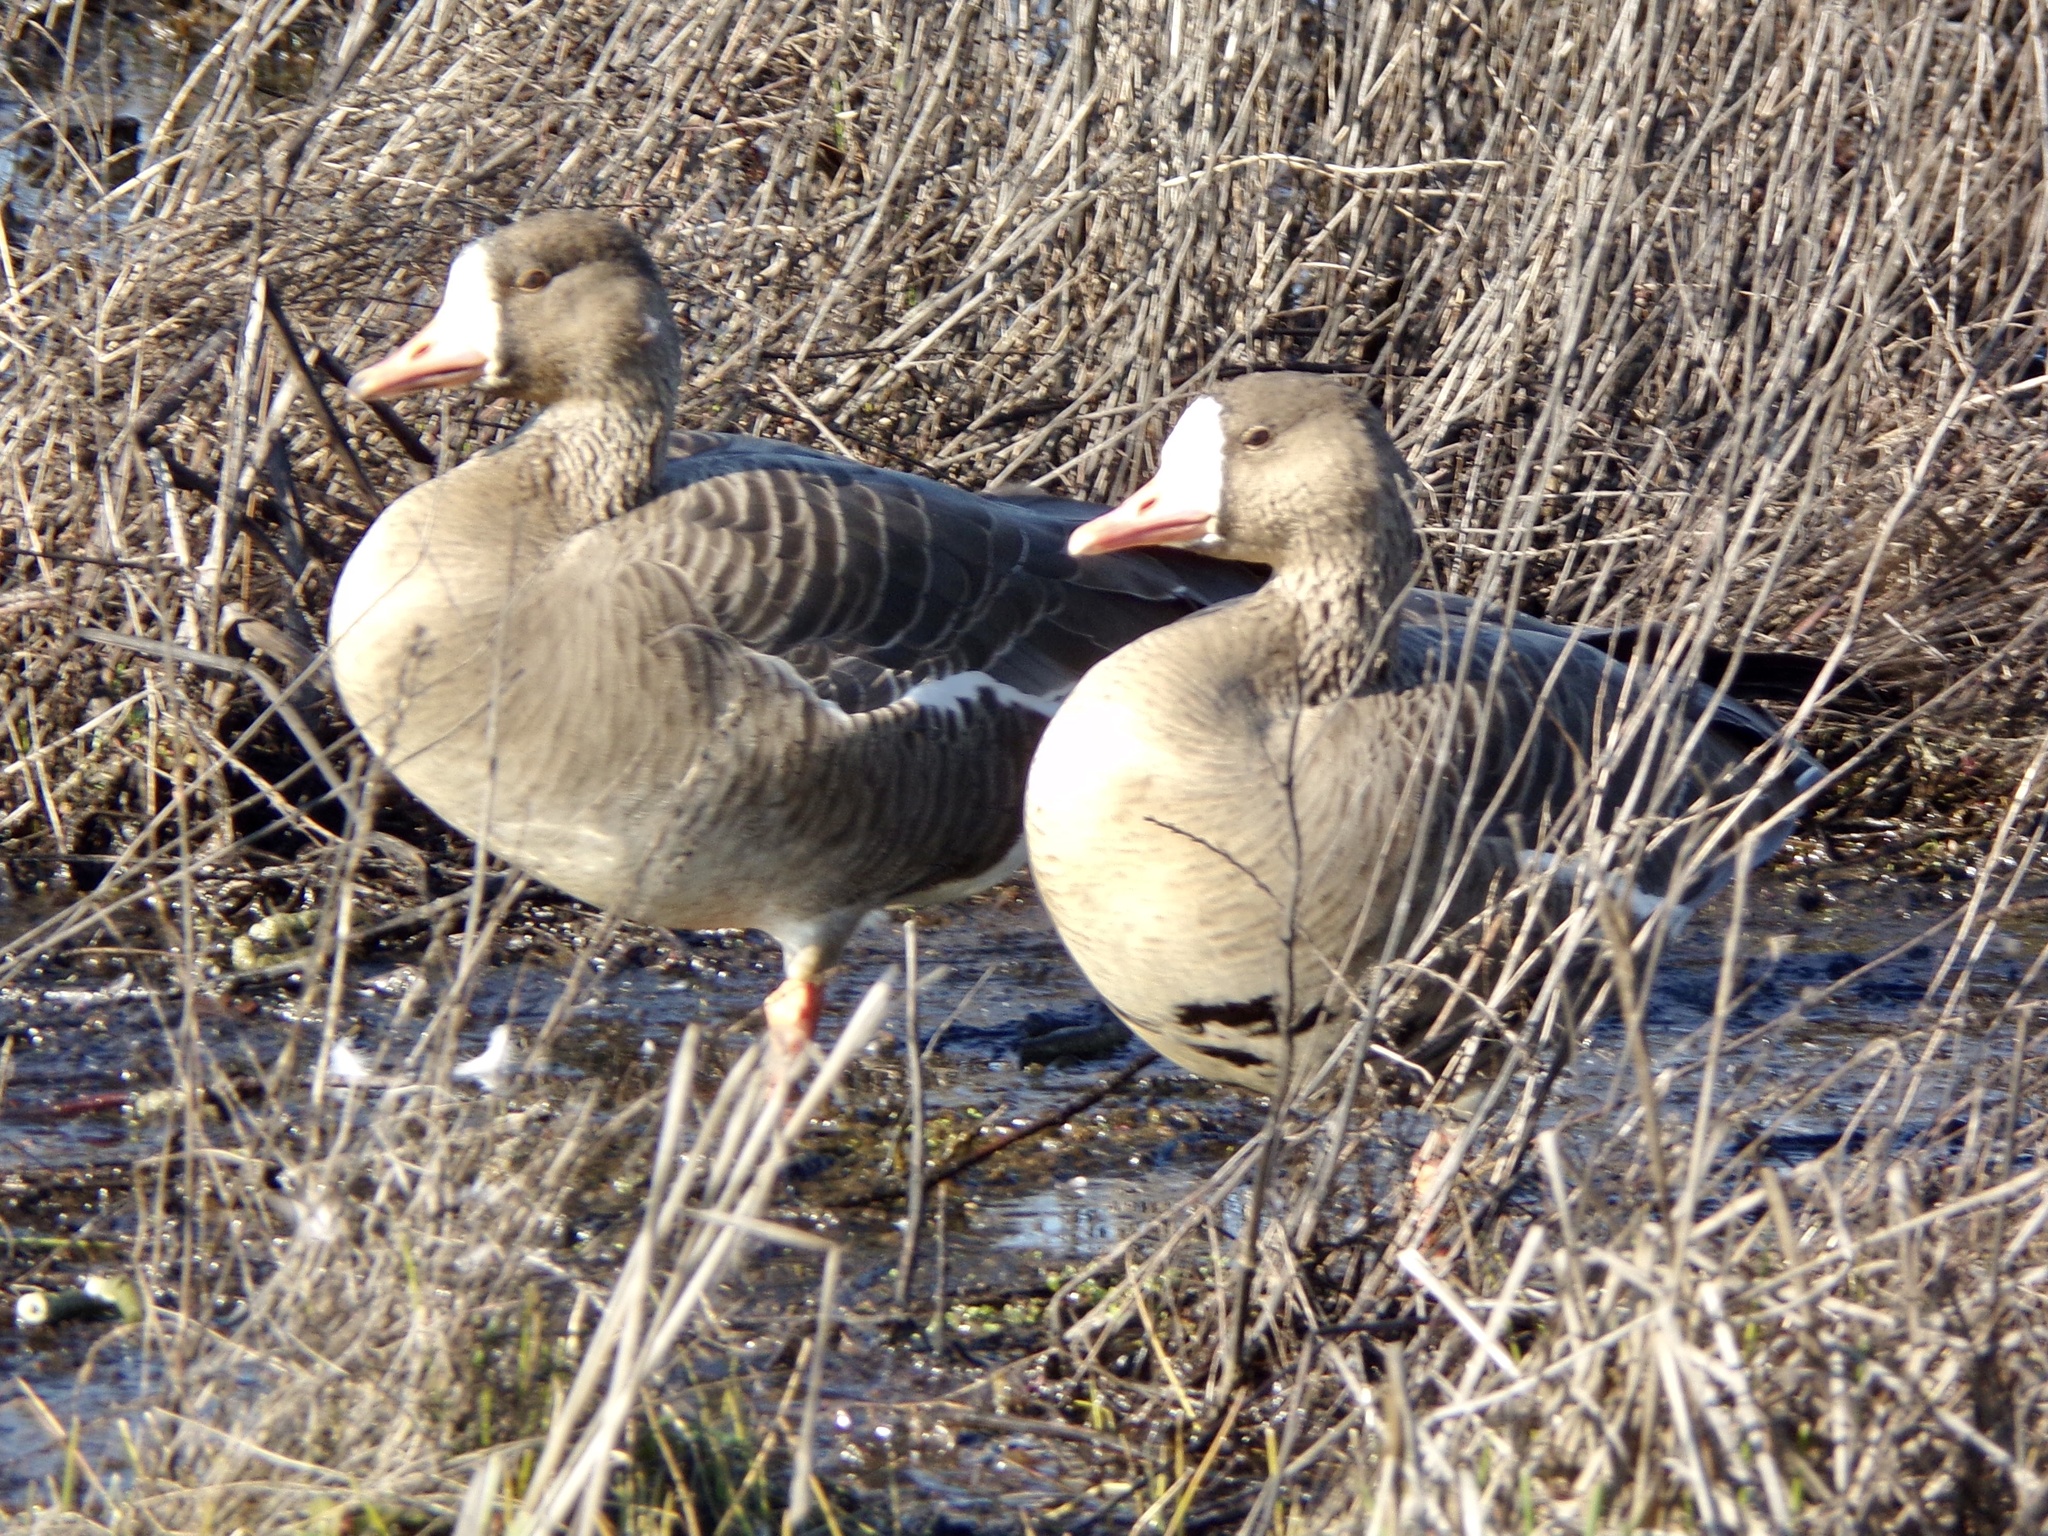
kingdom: Animalia
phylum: Chordata
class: Aves
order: Anseriformes
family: Anatidae
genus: Anser
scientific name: Anser albifrons
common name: Greater white-fronted goose
